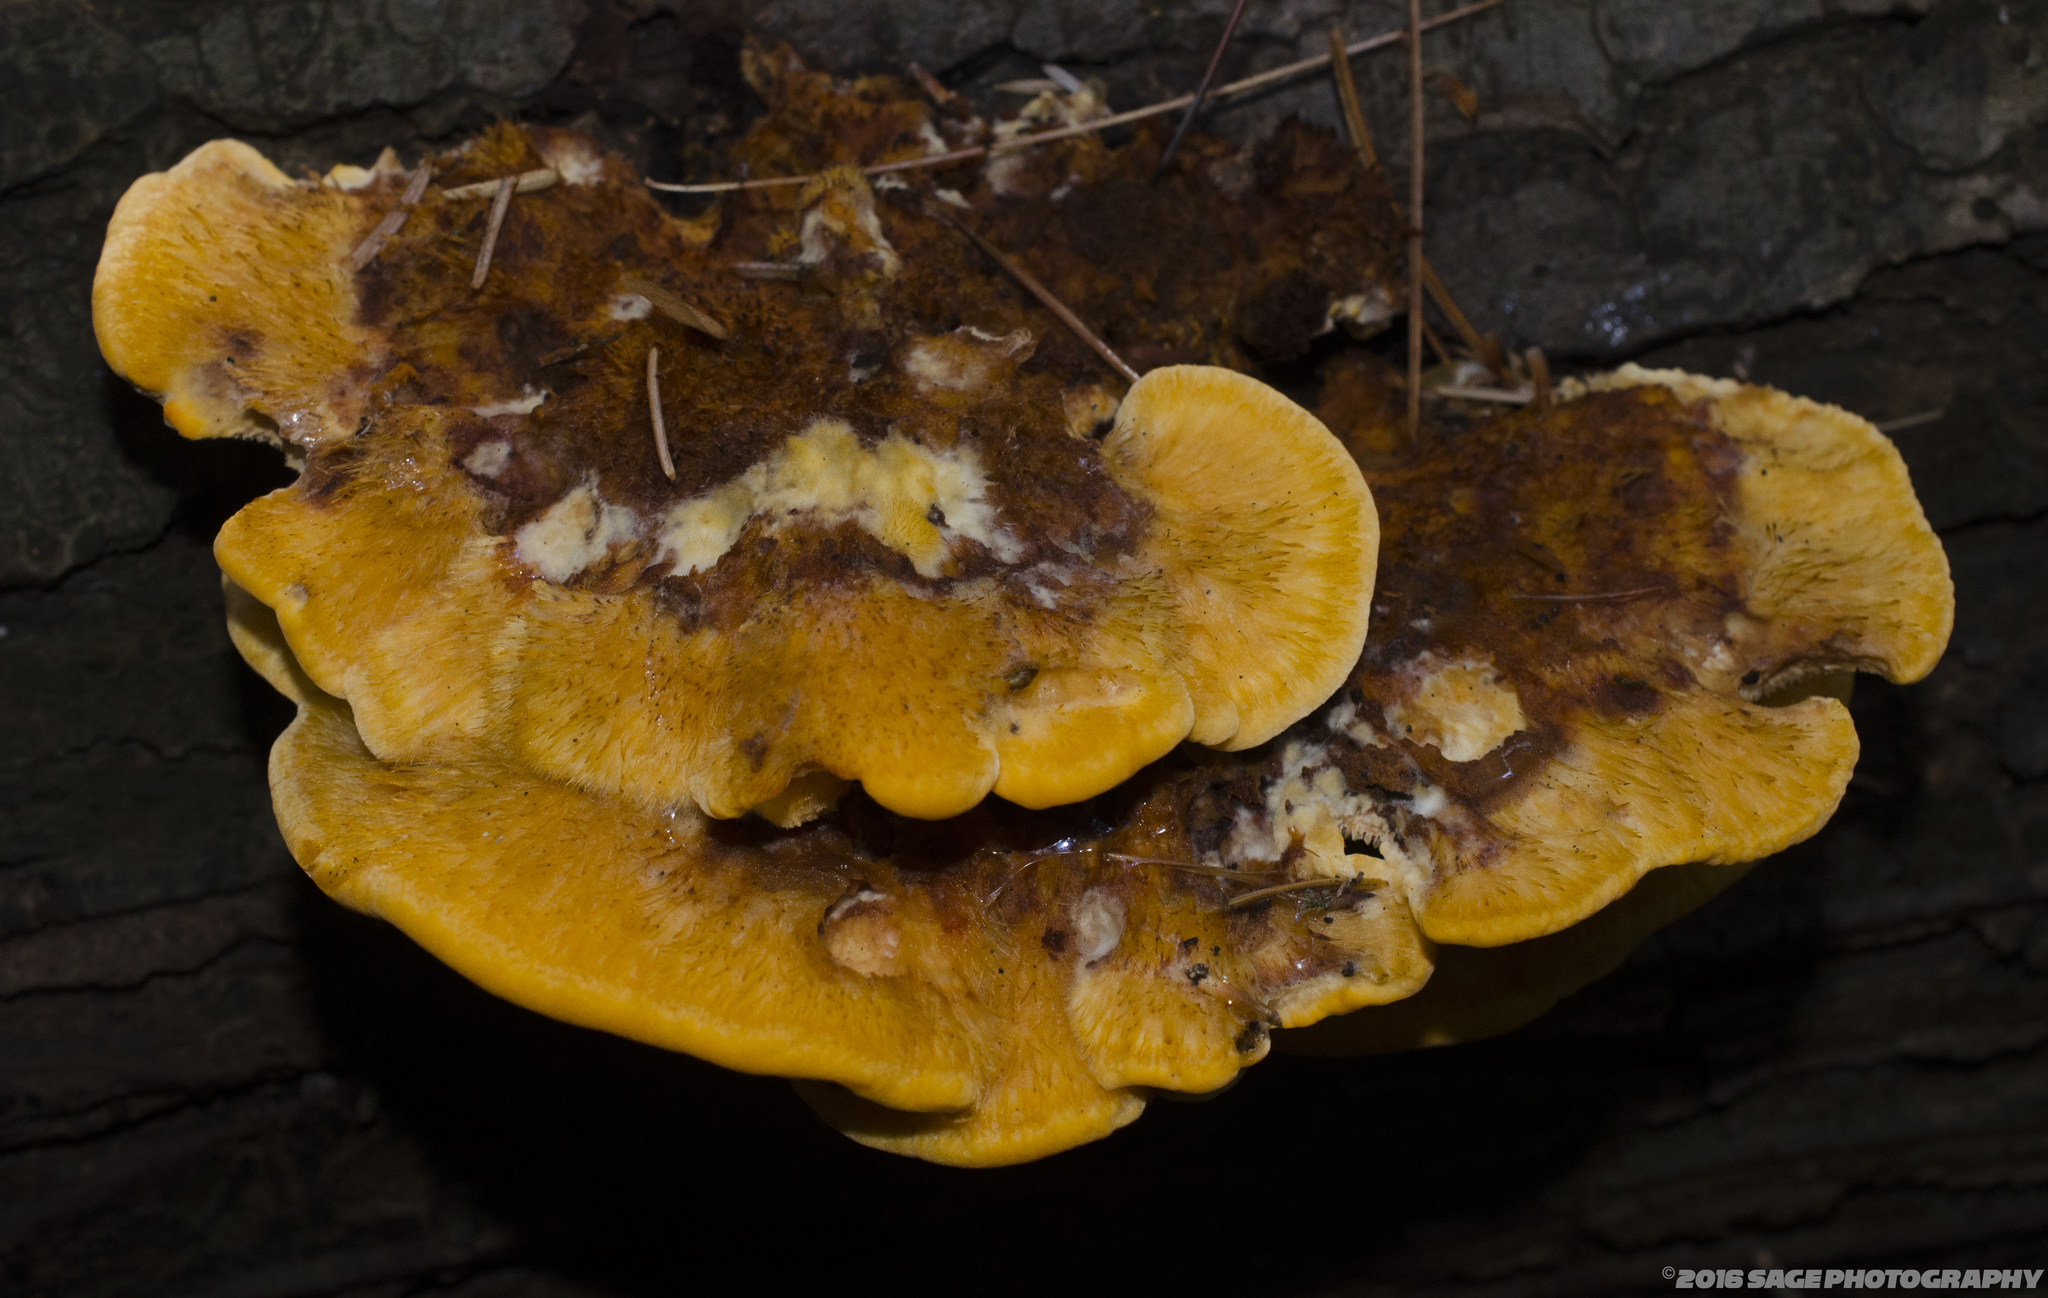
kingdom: Fungi
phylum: Basidiomycota
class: Agaricomycetes
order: Polyporales
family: Pycnoporellaceae
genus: Pycnoporellus
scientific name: Pycnoporellus fulgens
